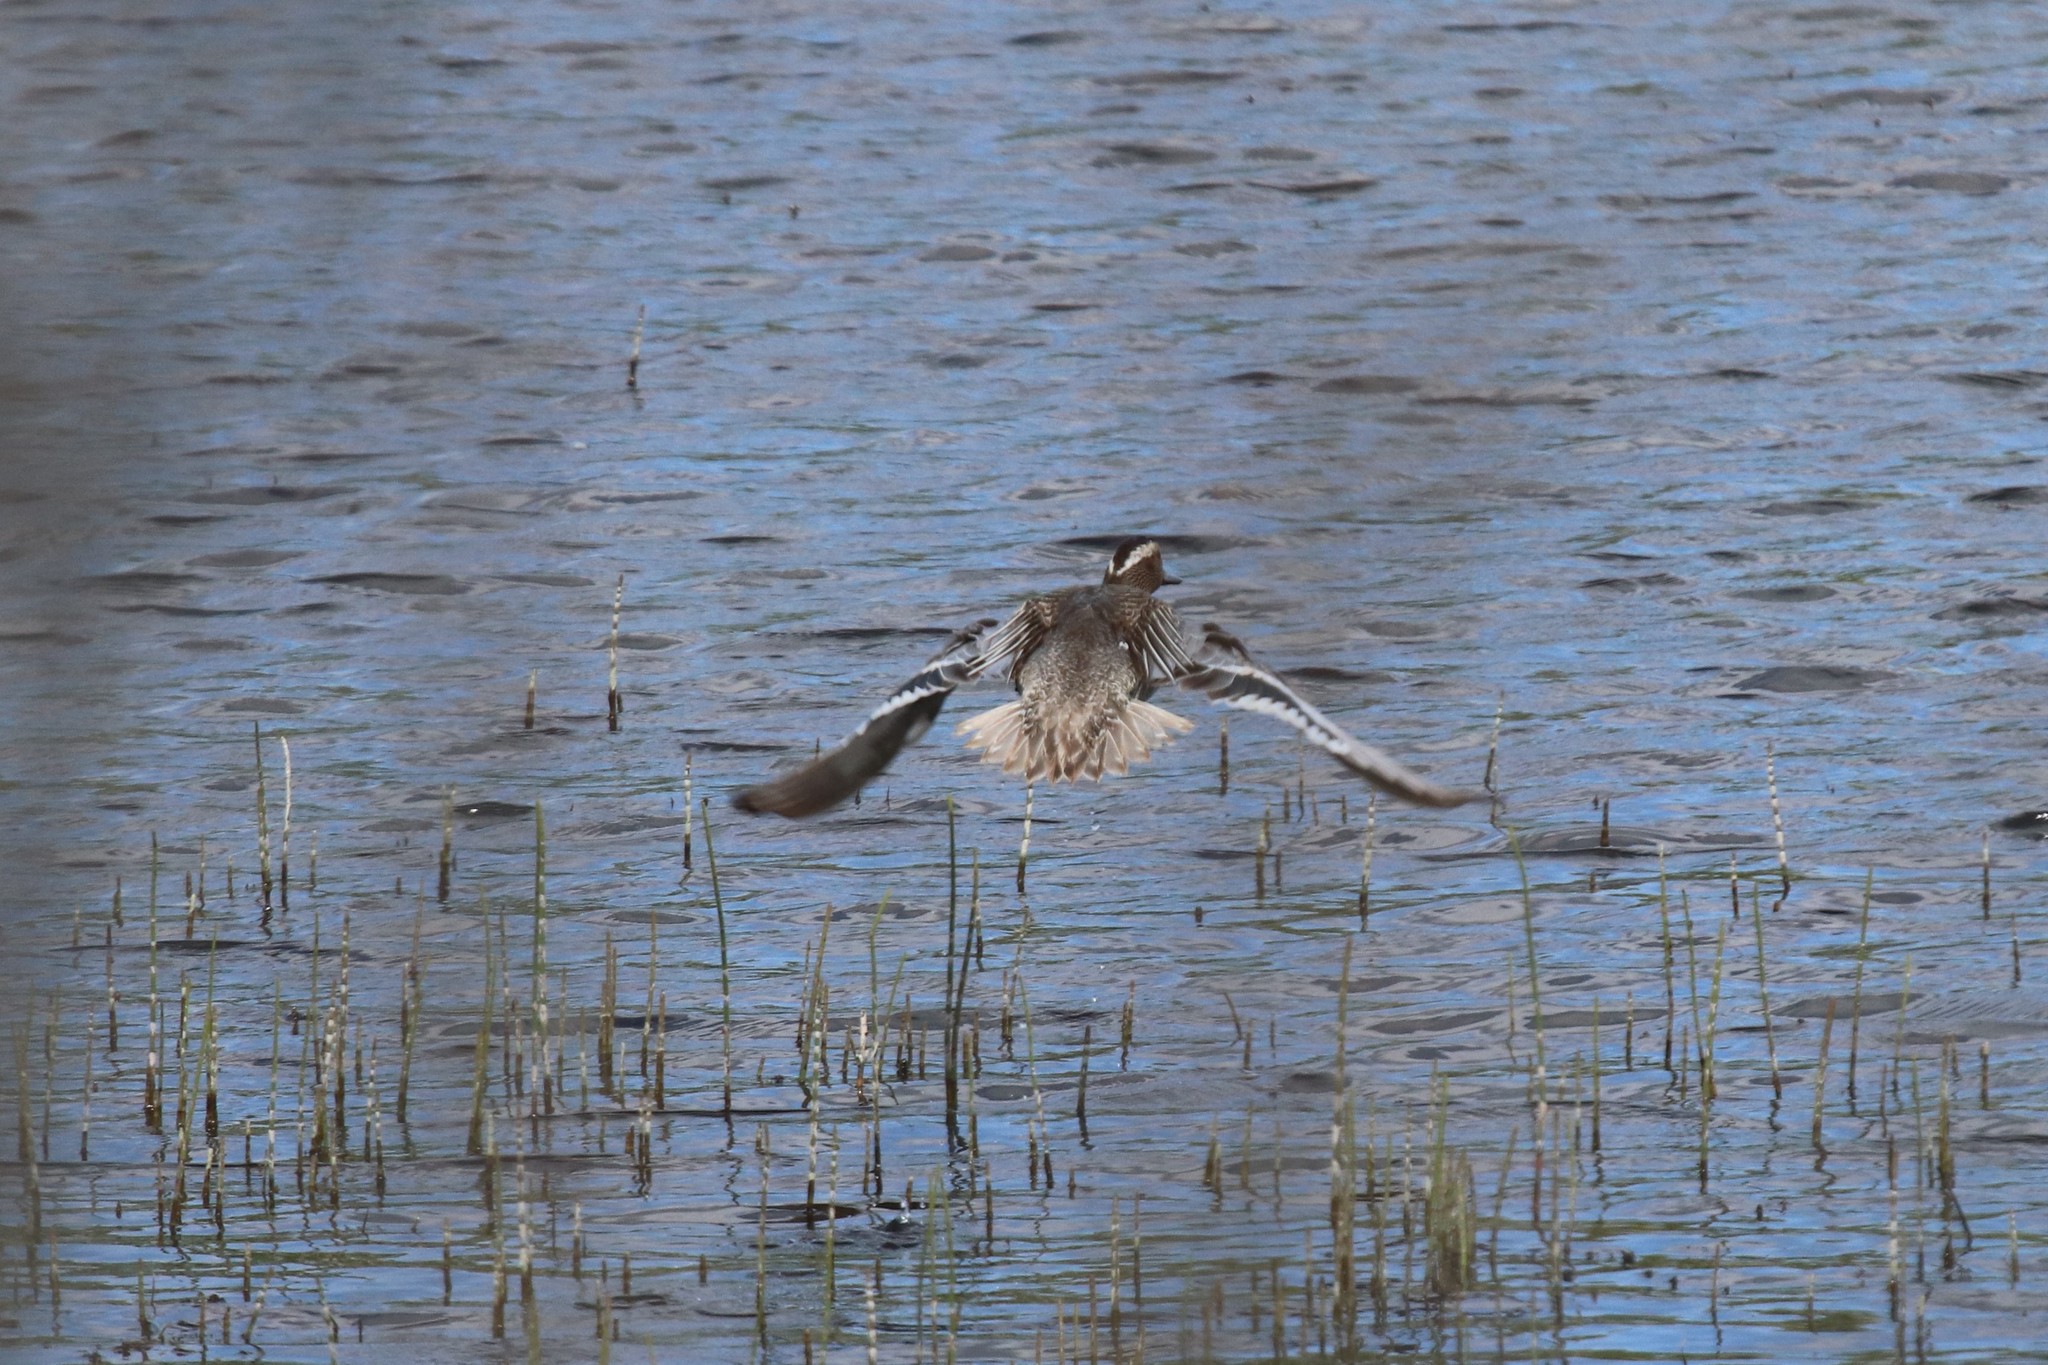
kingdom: Animalia
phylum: Chordata
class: Aves
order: Anseriformes
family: Anatidae
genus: Spatula
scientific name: Spatula querquedula
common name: Garganey
